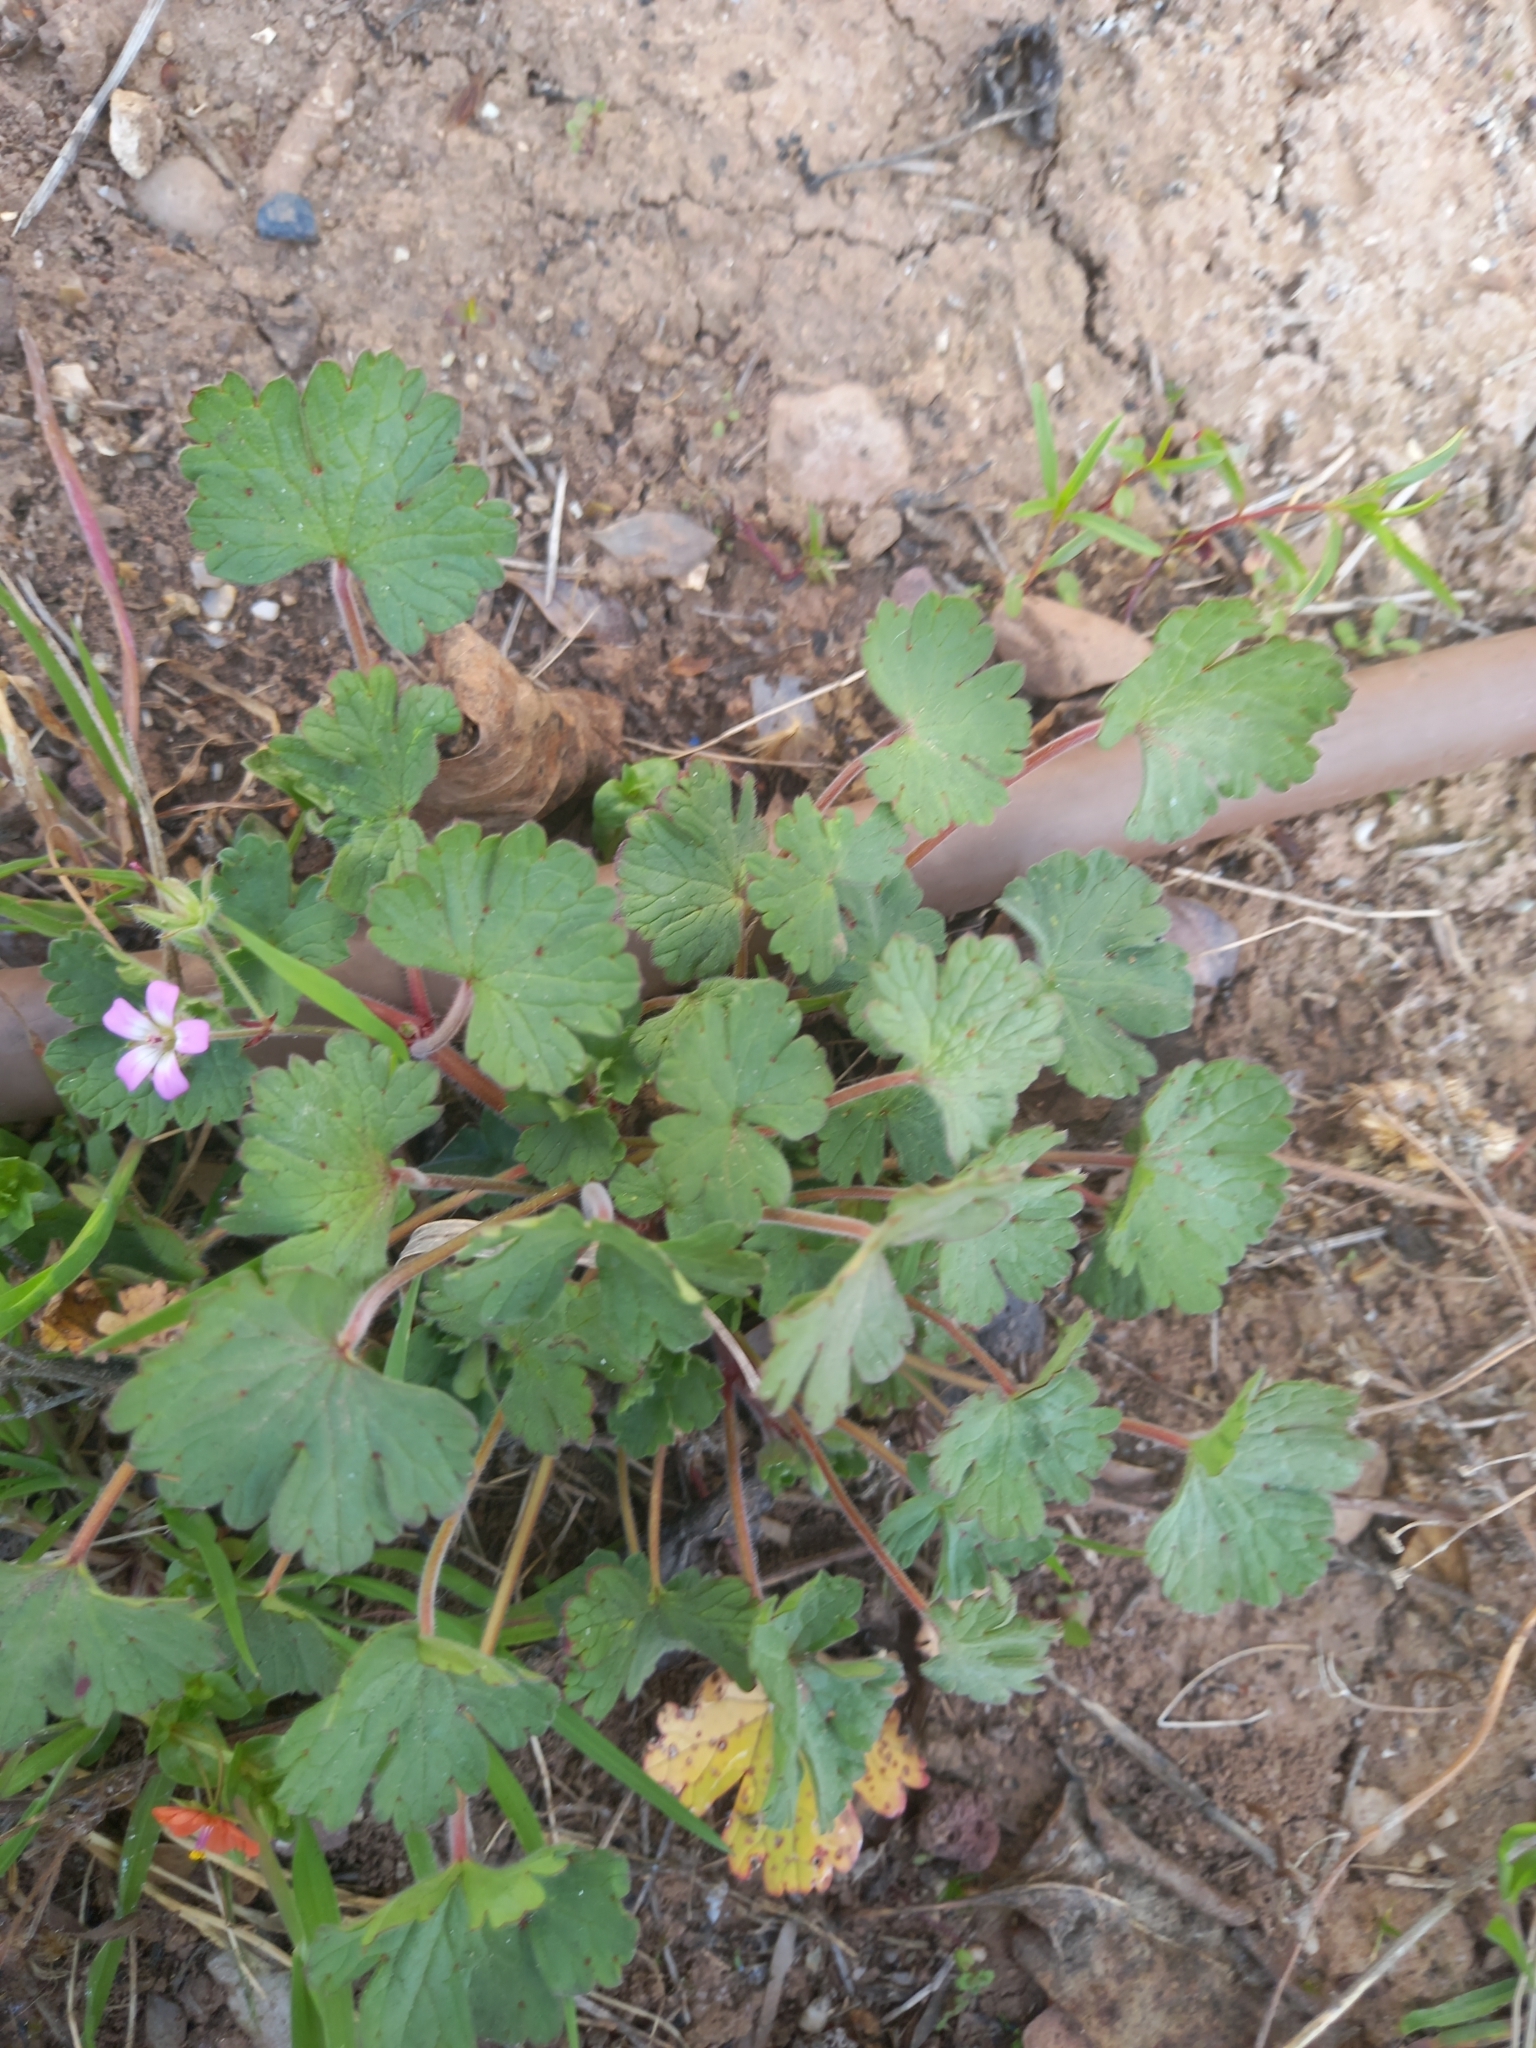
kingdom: Plantae
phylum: Tracheophyta
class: Magnoliopsida
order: Geraniales
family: Geraniaceae
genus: Geranium
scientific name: Geranium rotundifolium
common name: Round-leaved crane's-bill
